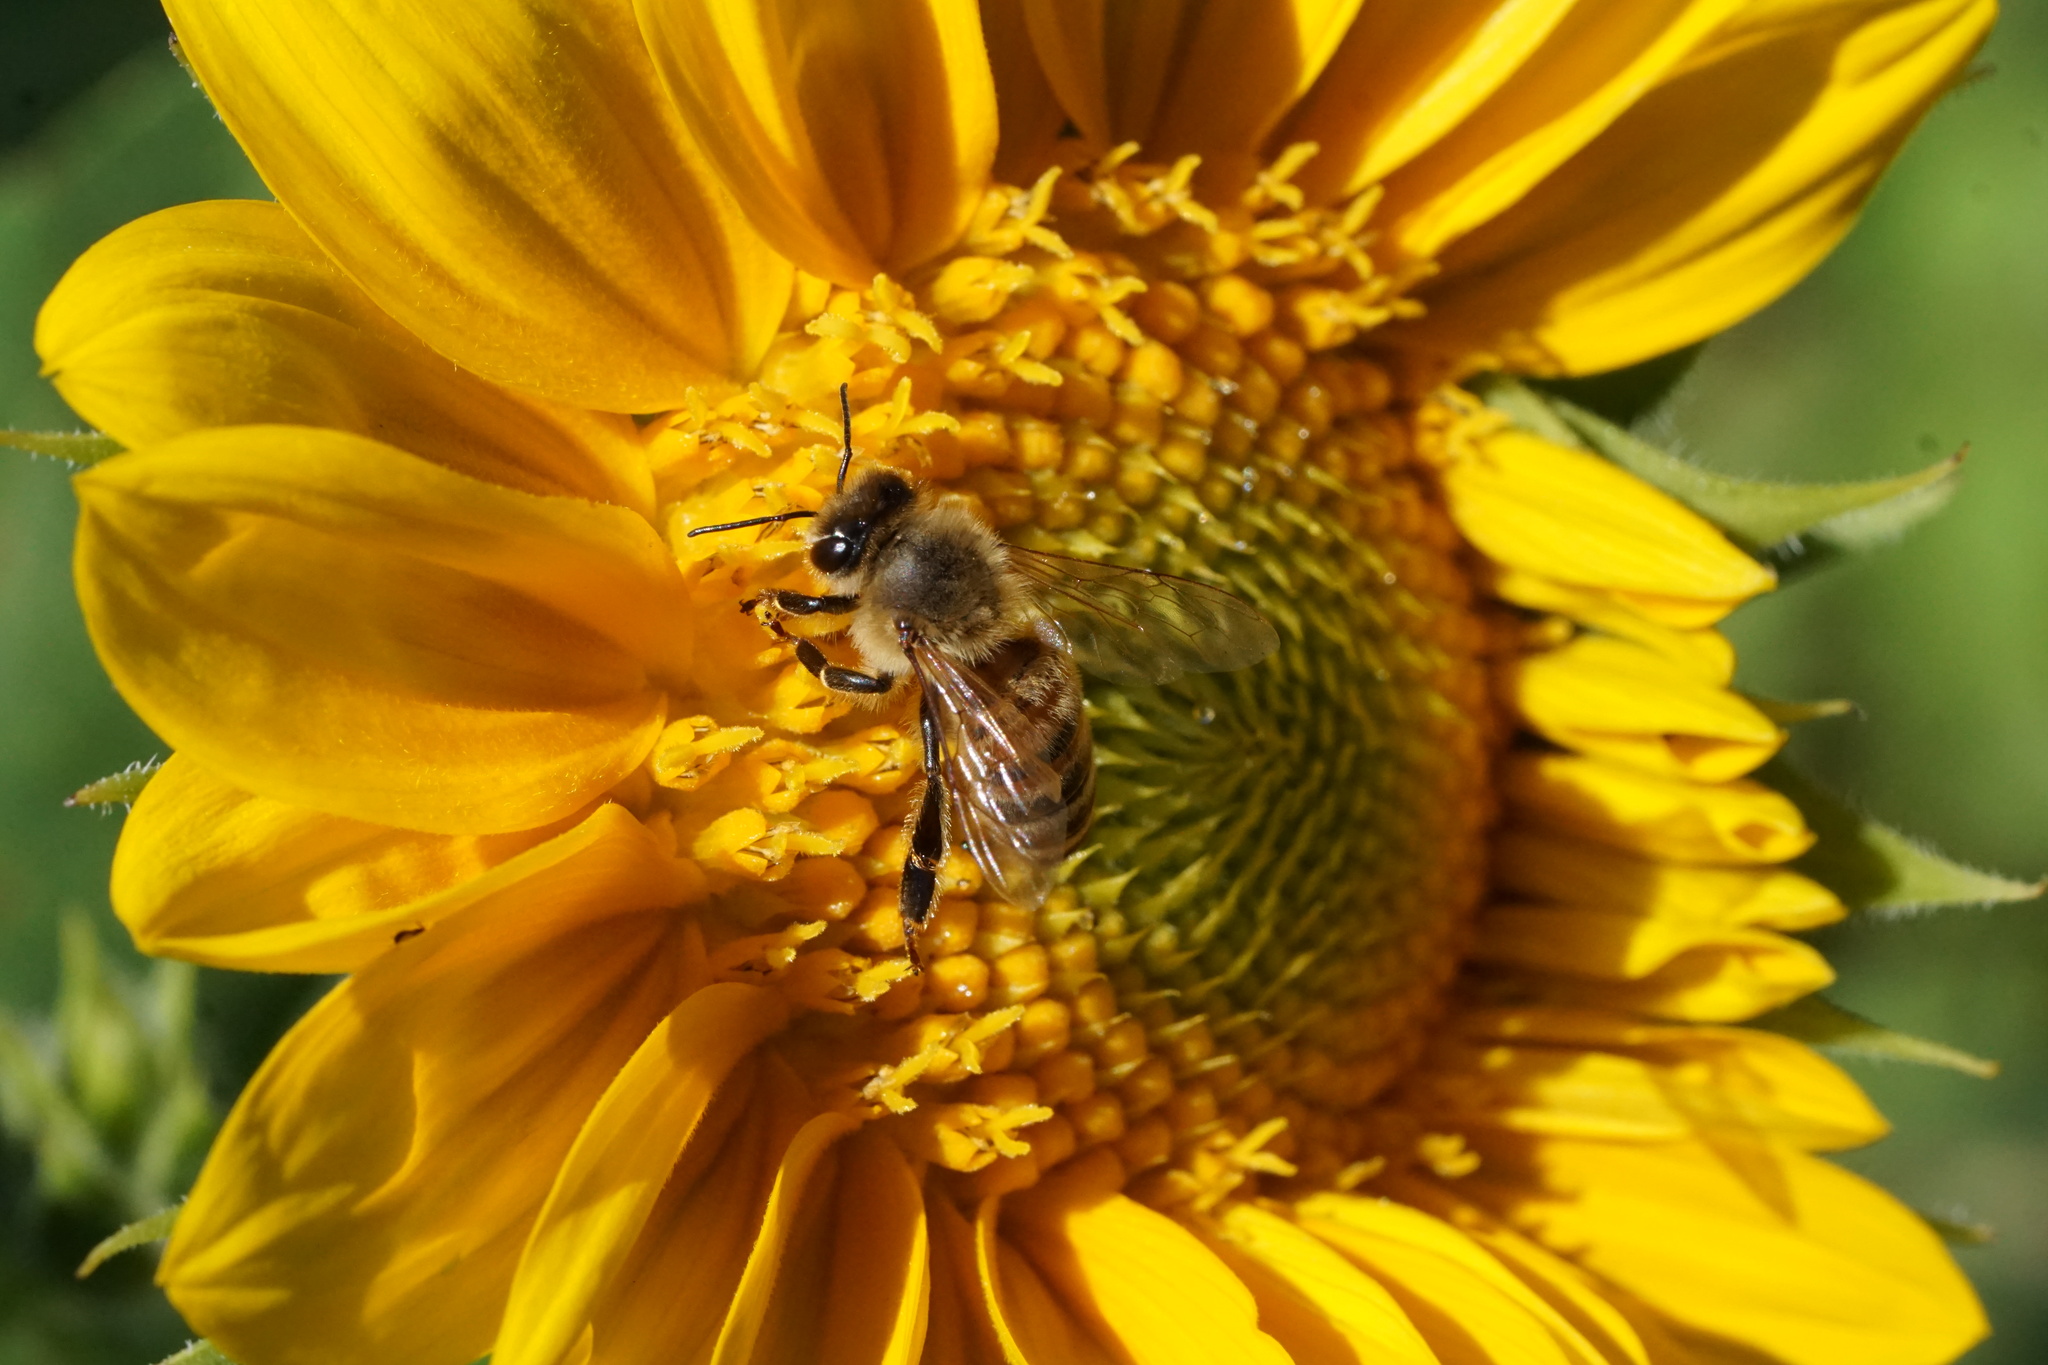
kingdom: Animalia
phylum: Arthropoda
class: Insecta
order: Hymenoptera
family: Apidae
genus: Apis
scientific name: Apis mellifera
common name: Honey bee
